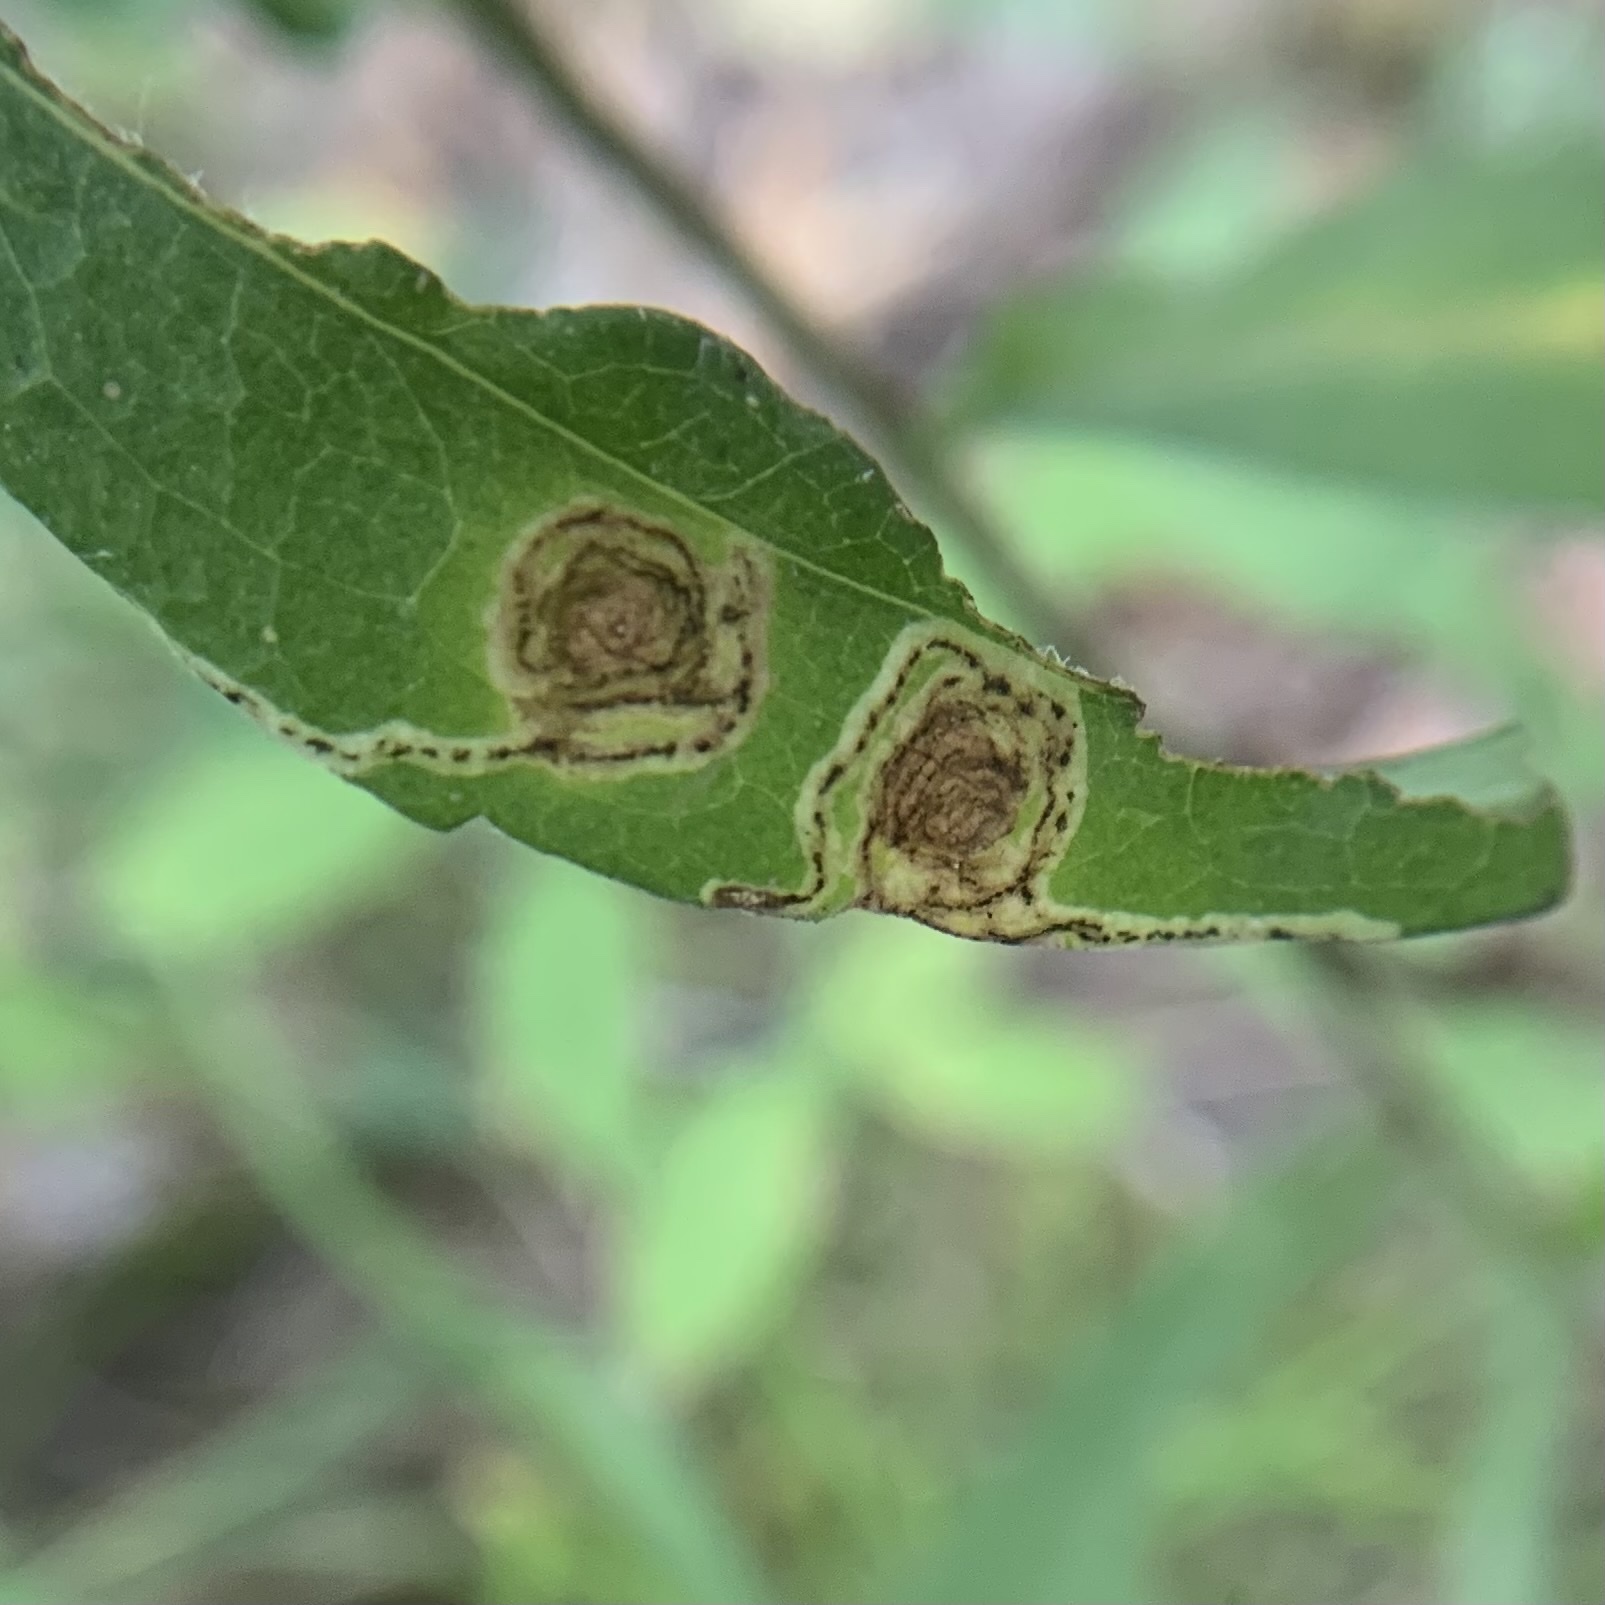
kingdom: Animalia
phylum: Arthropoda
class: Insecta
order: Diptera
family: Agromyzidae
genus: Liriomyza
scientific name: Liriomyza eupatorii
